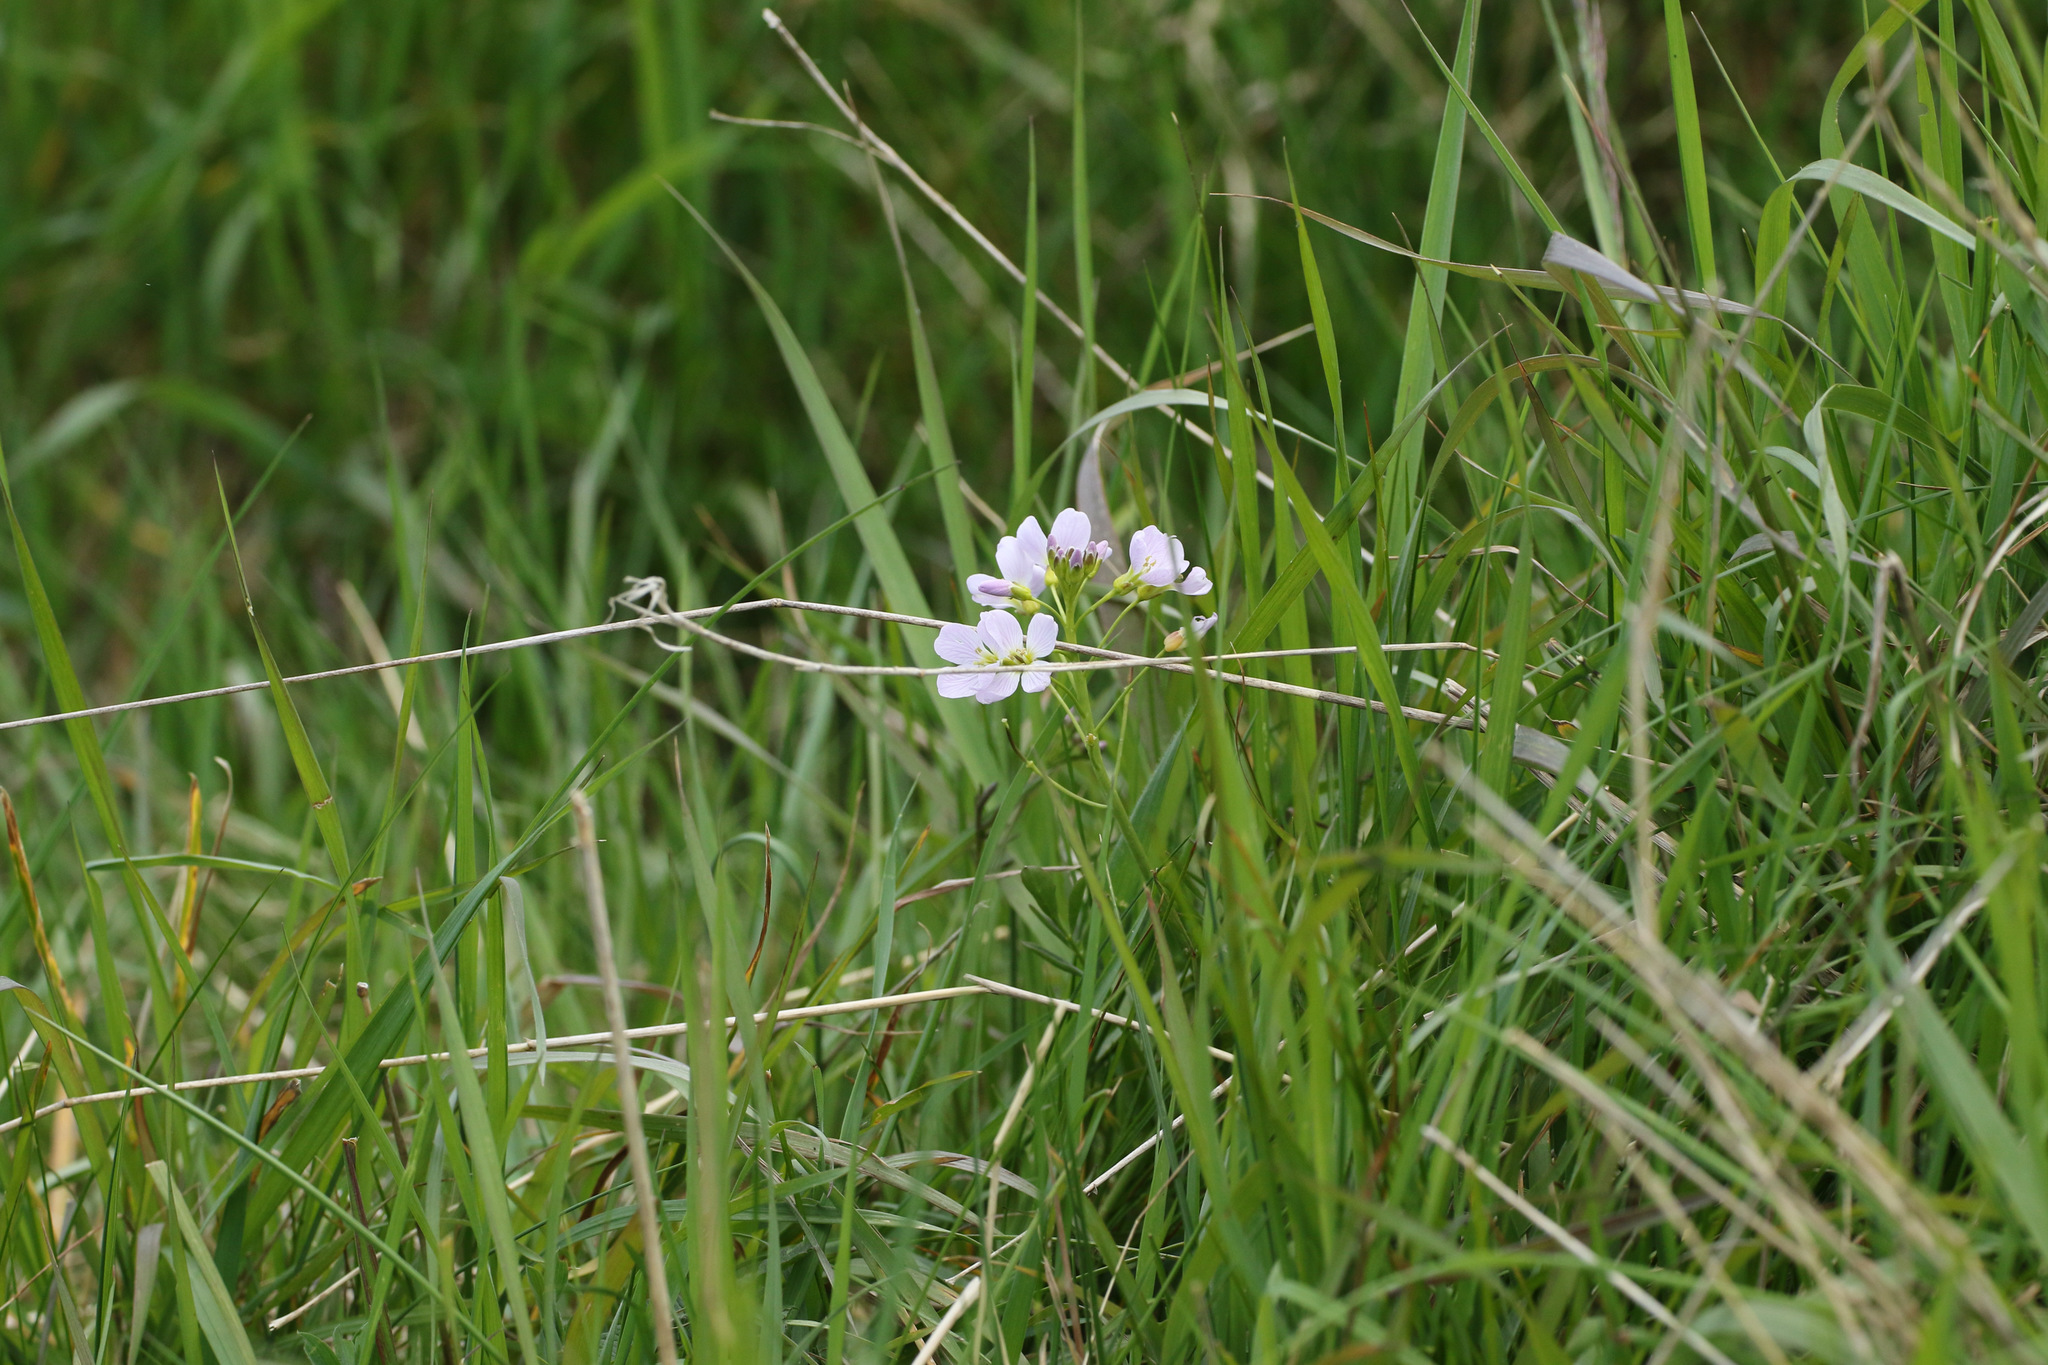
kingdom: Plantae
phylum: Tracheophyta
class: Magnoliopsida
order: Brassicales
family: Brassicaceae
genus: Cardamine
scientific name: Cardamine pratensis
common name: Cuckoo flower
